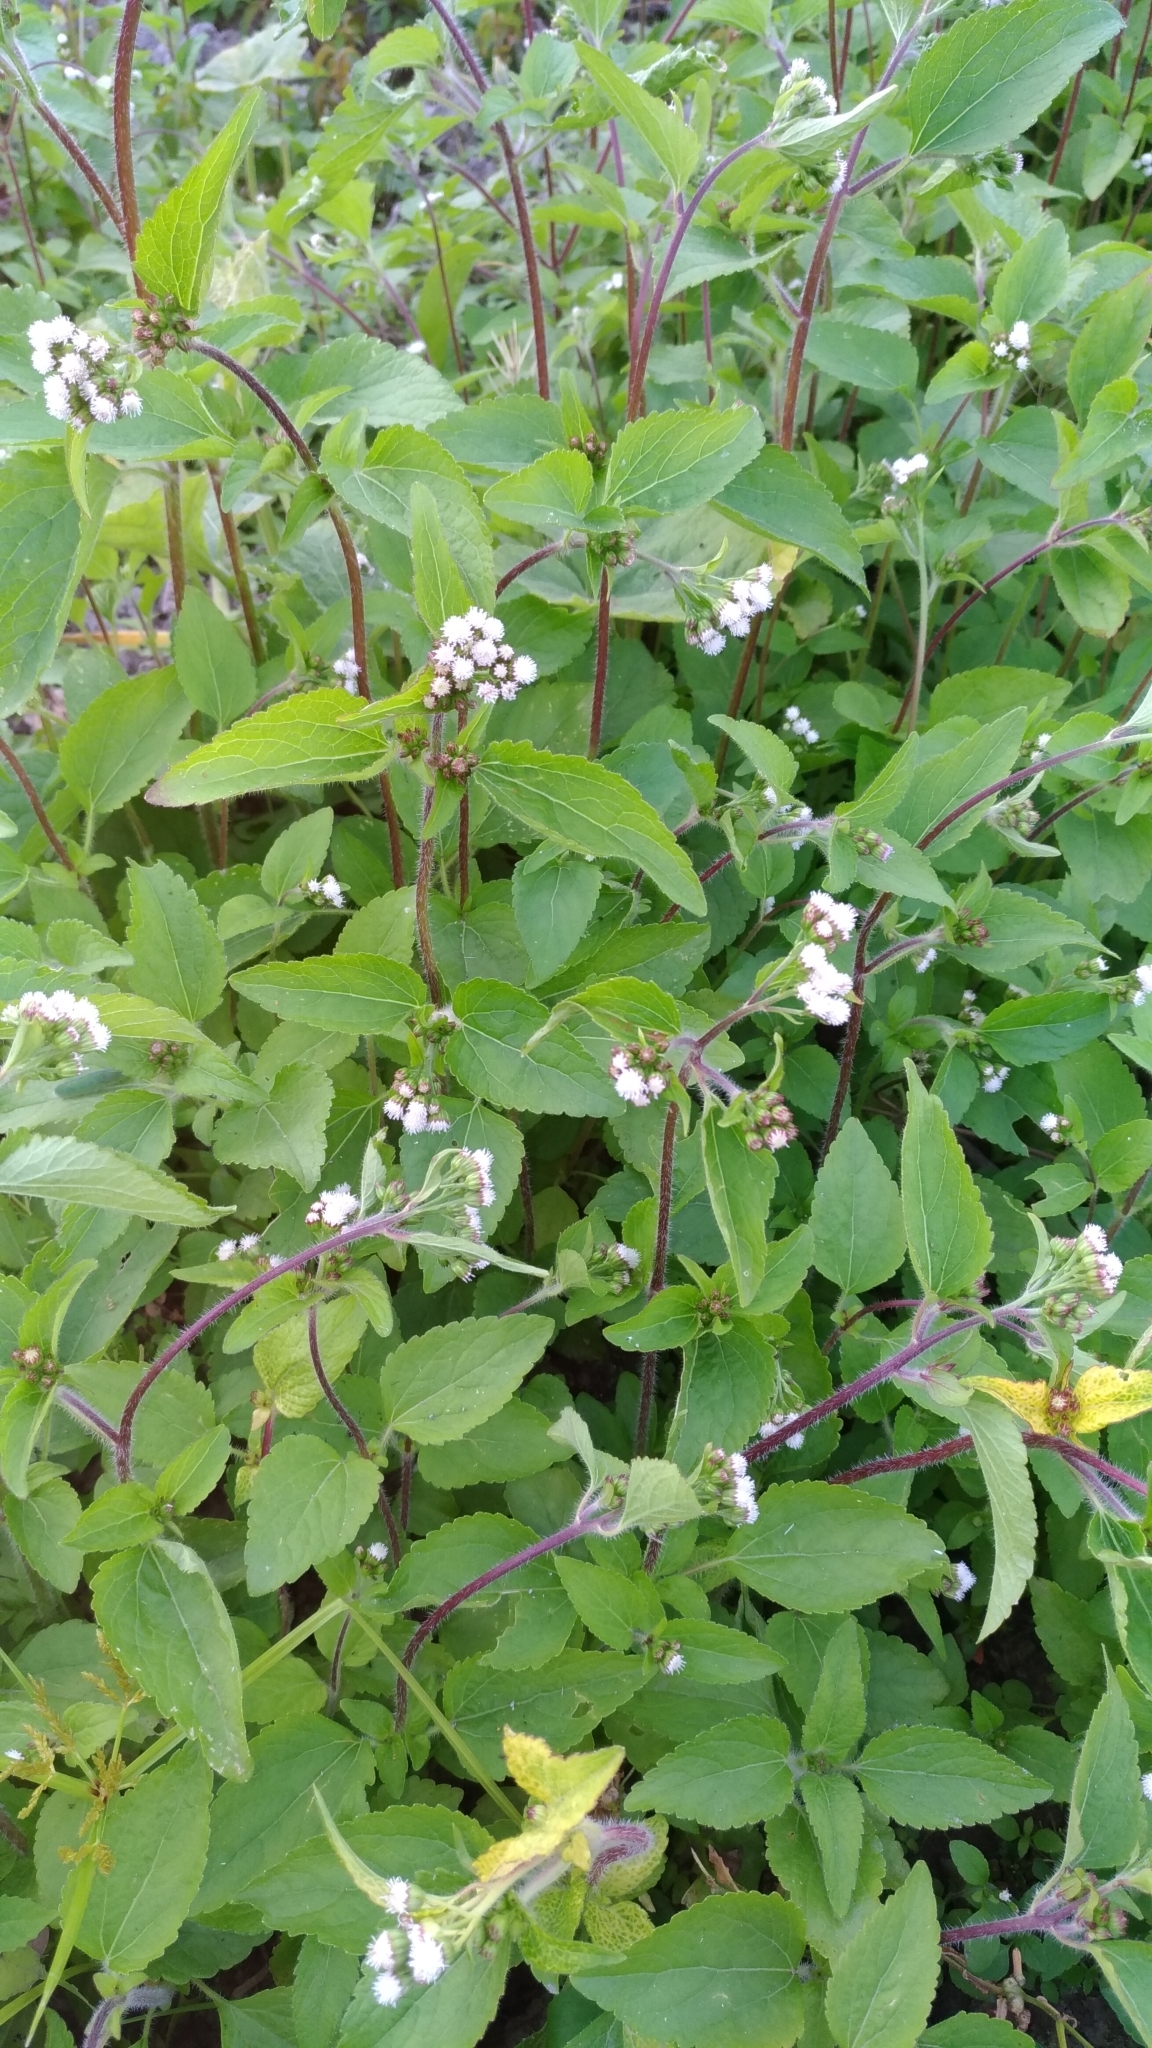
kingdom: Plantae
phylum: Tracheophyta
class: Magnoliopsida
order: Asterales
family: Asteraceae
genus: Ageratum
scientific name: Ageratum conyzoides
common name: Tropical whiteweed
